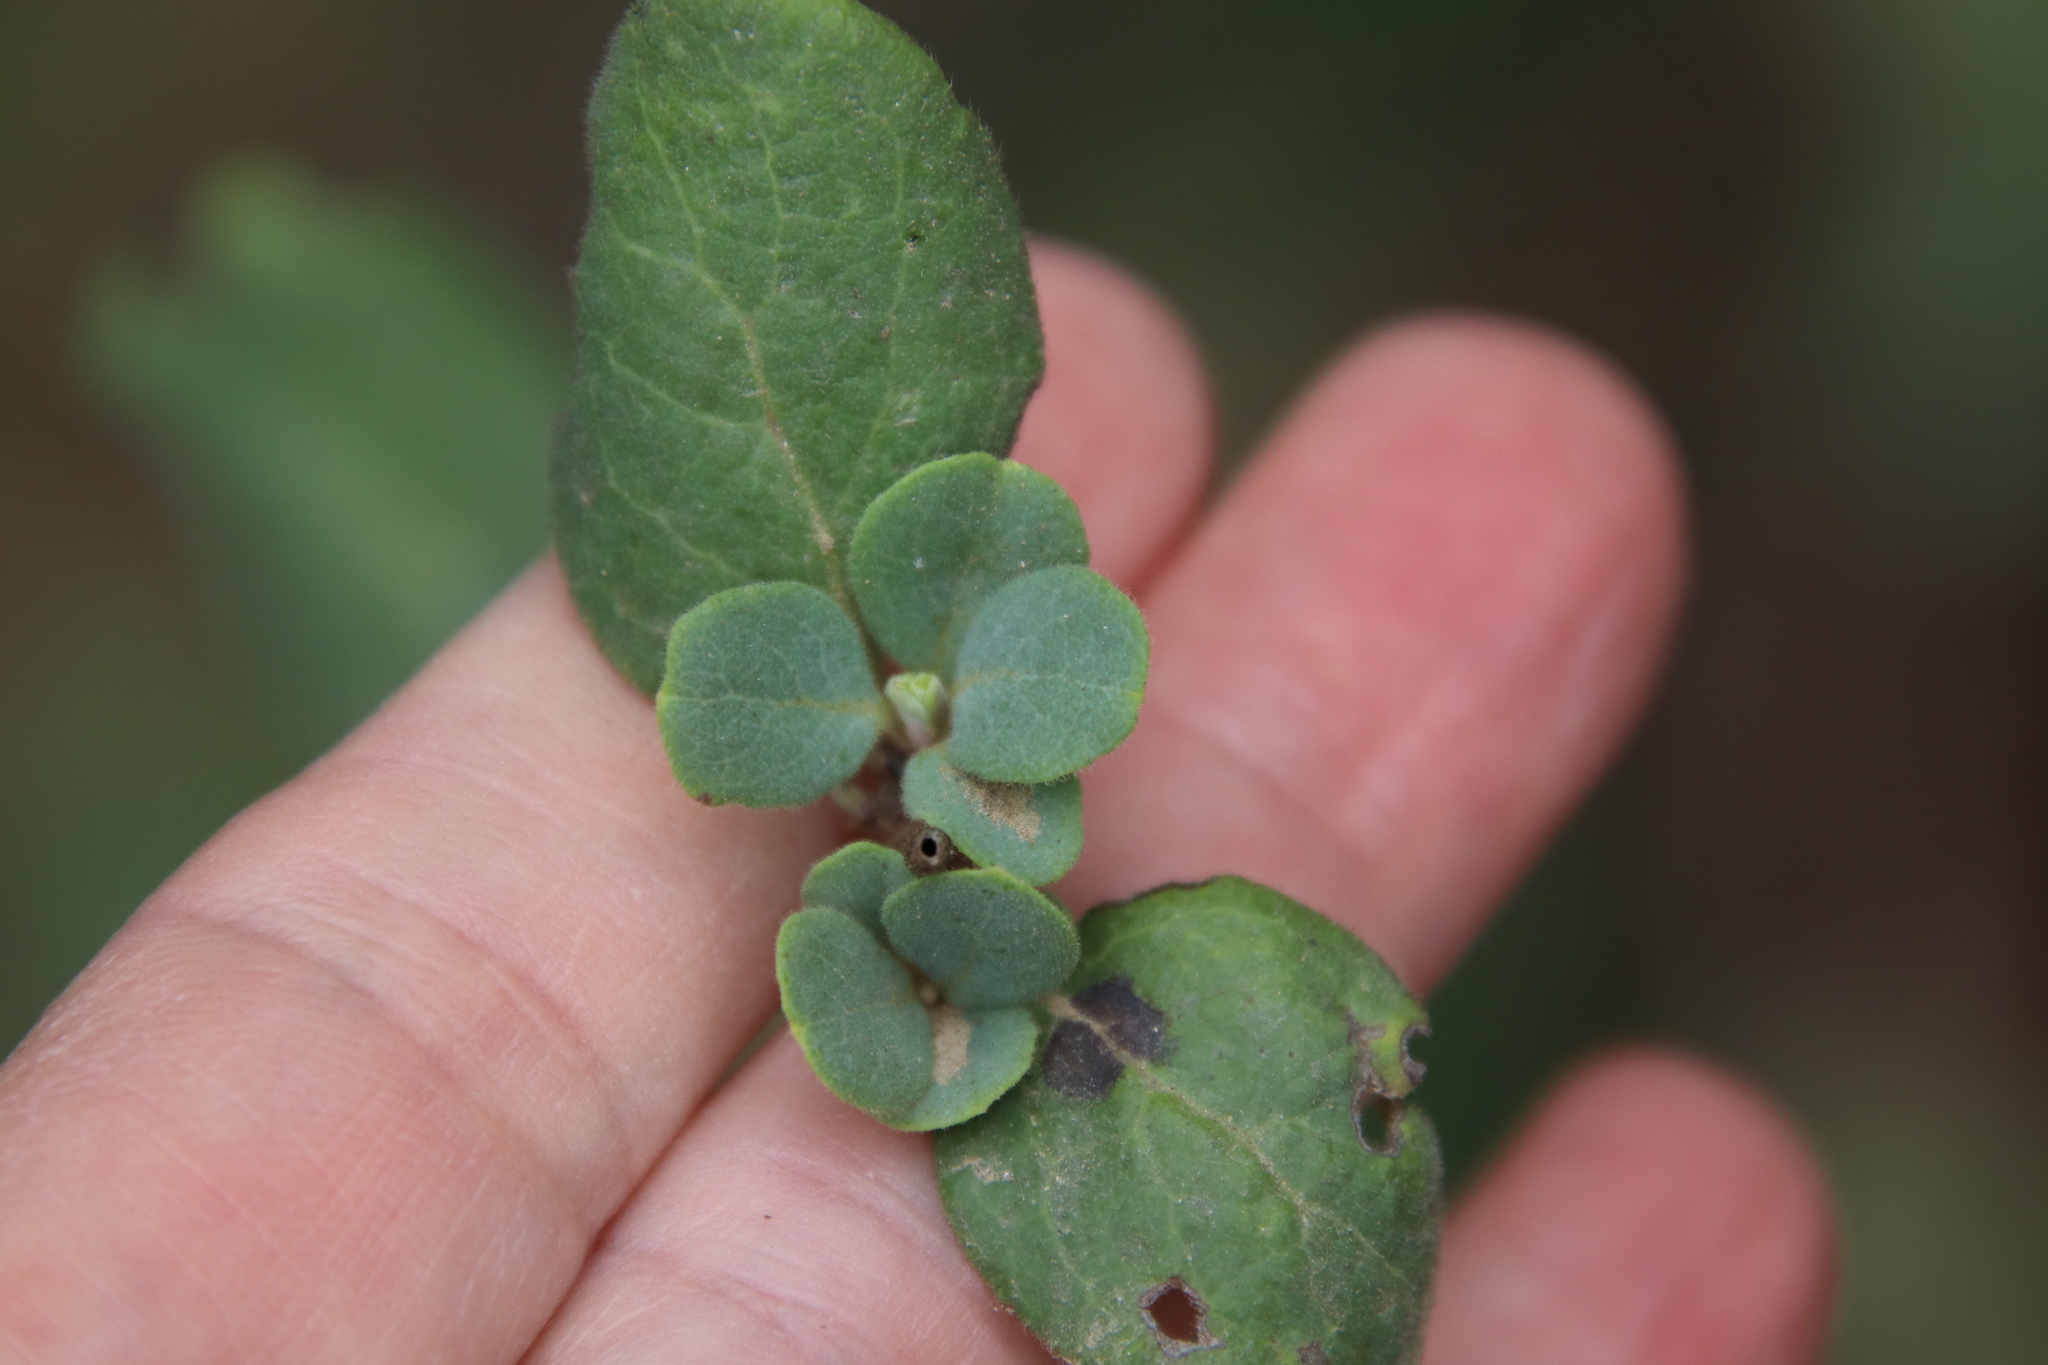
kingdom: Plantae
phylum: Tracheophyta
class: Magnoliopsida
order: Dipsacales
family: Caprifoliaceae
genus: Lonicera
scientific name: Lonicera subspicata
